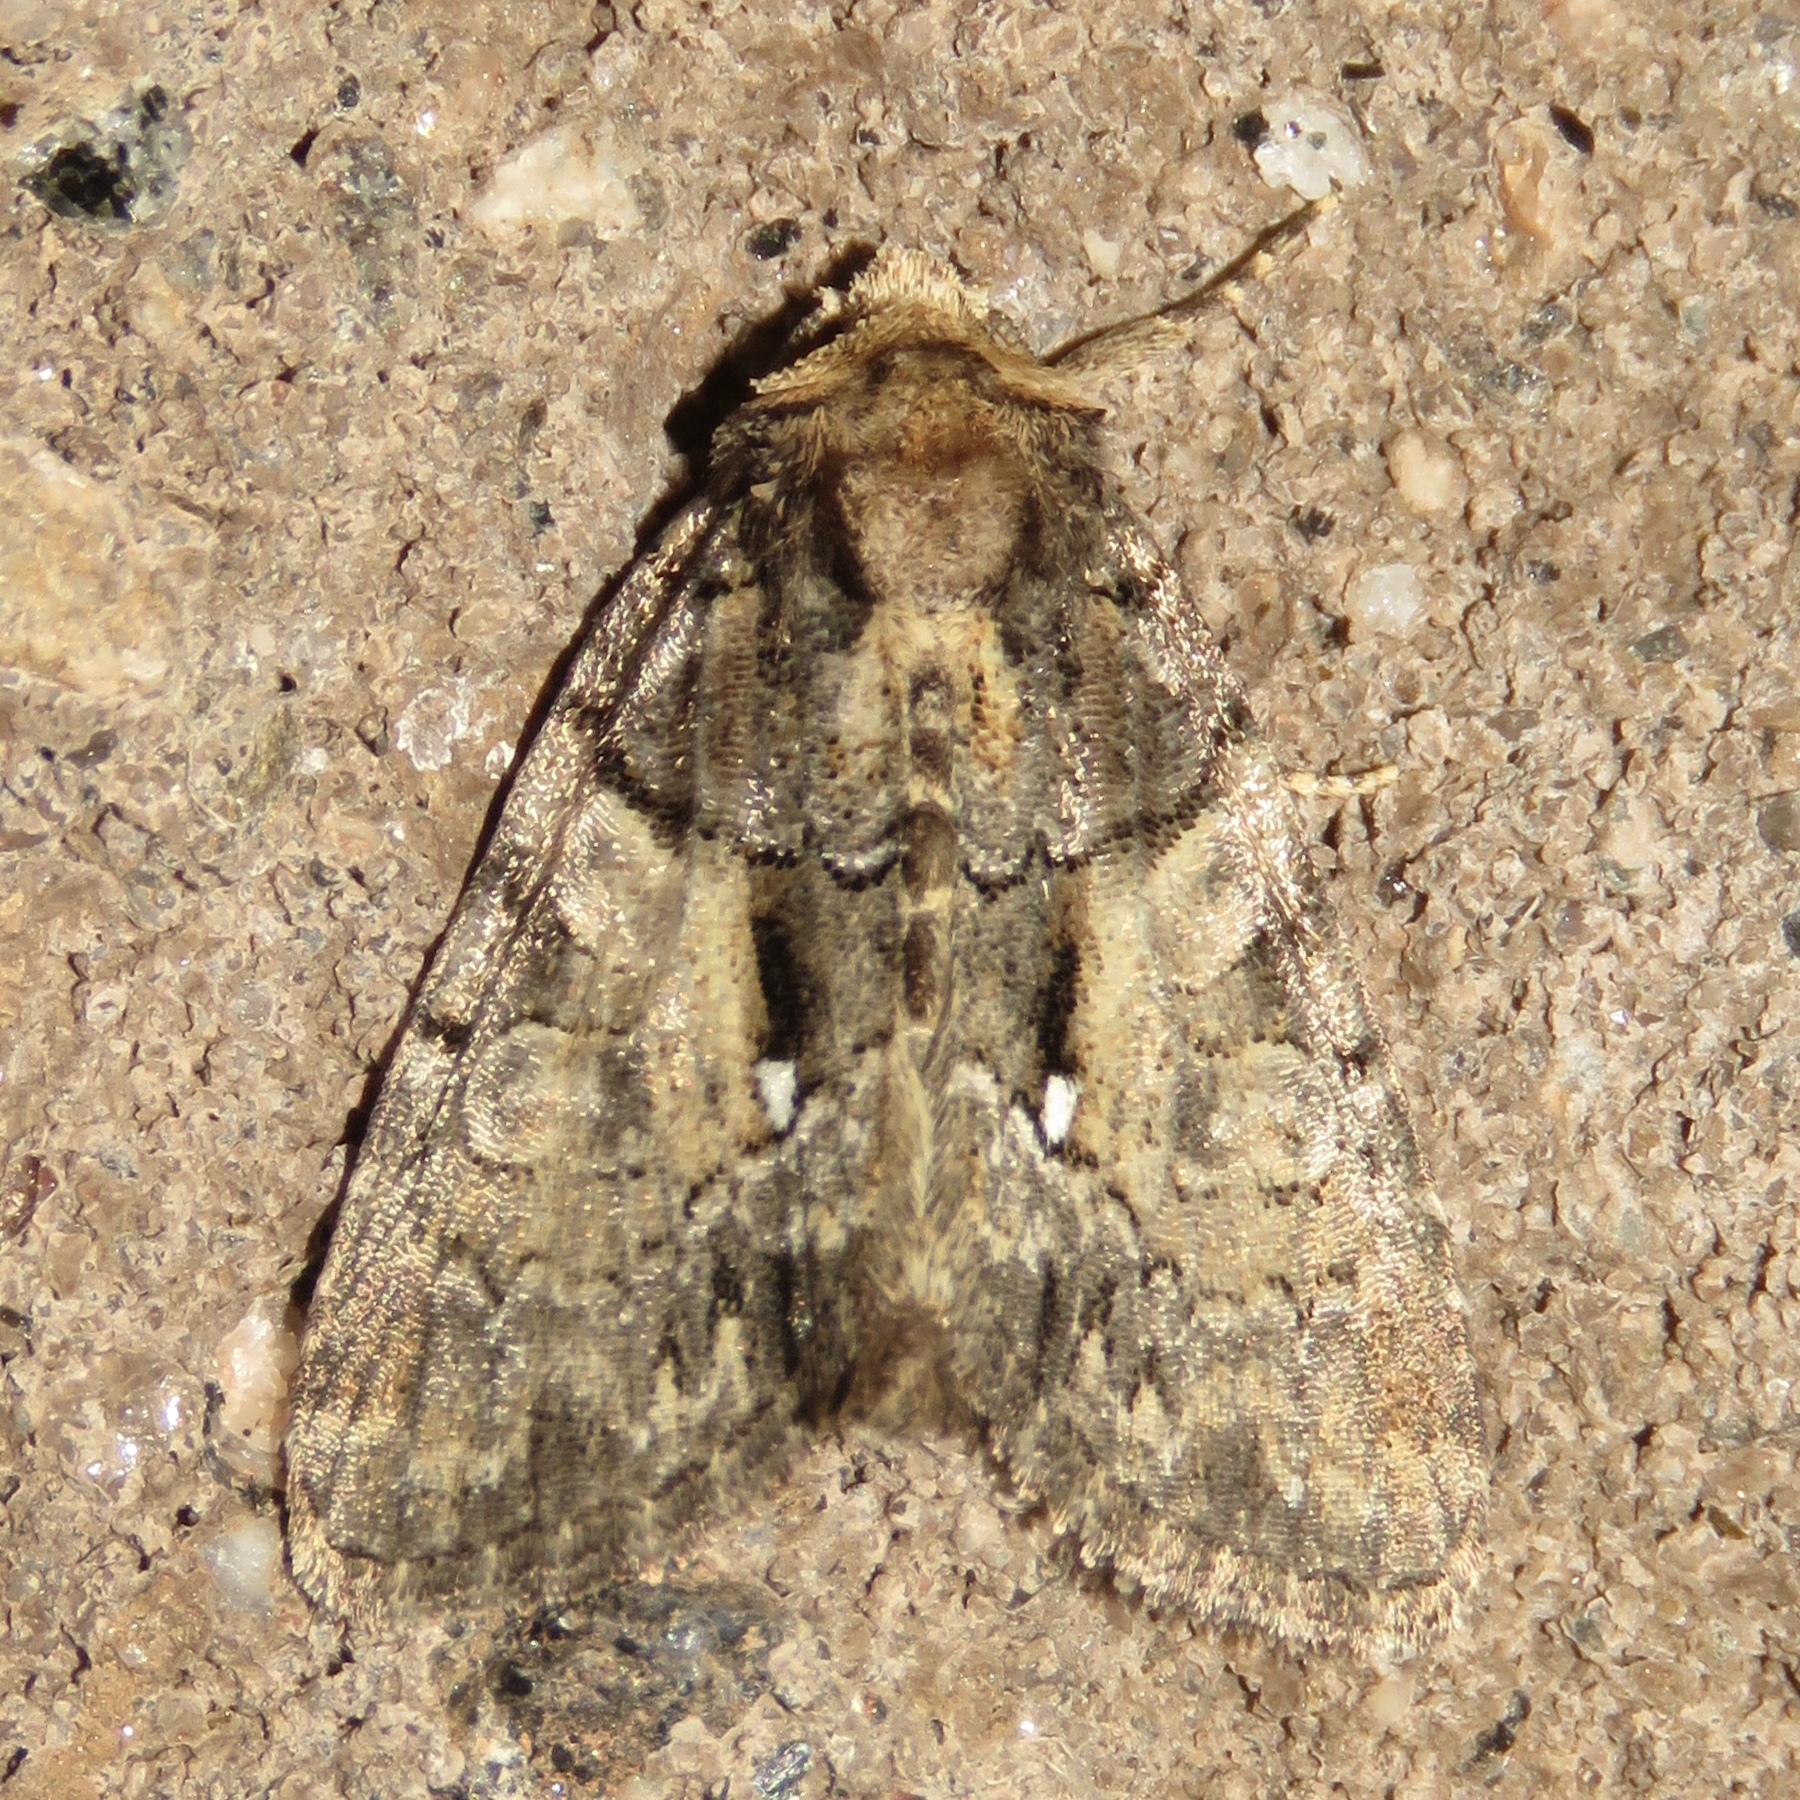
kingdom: Animalia
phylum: Arthropoda
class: Insecta
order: Lepidoptera
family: Noctuidae
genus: Chytonix
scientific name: Chytonix palliatricula
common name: Cloaked marvel
